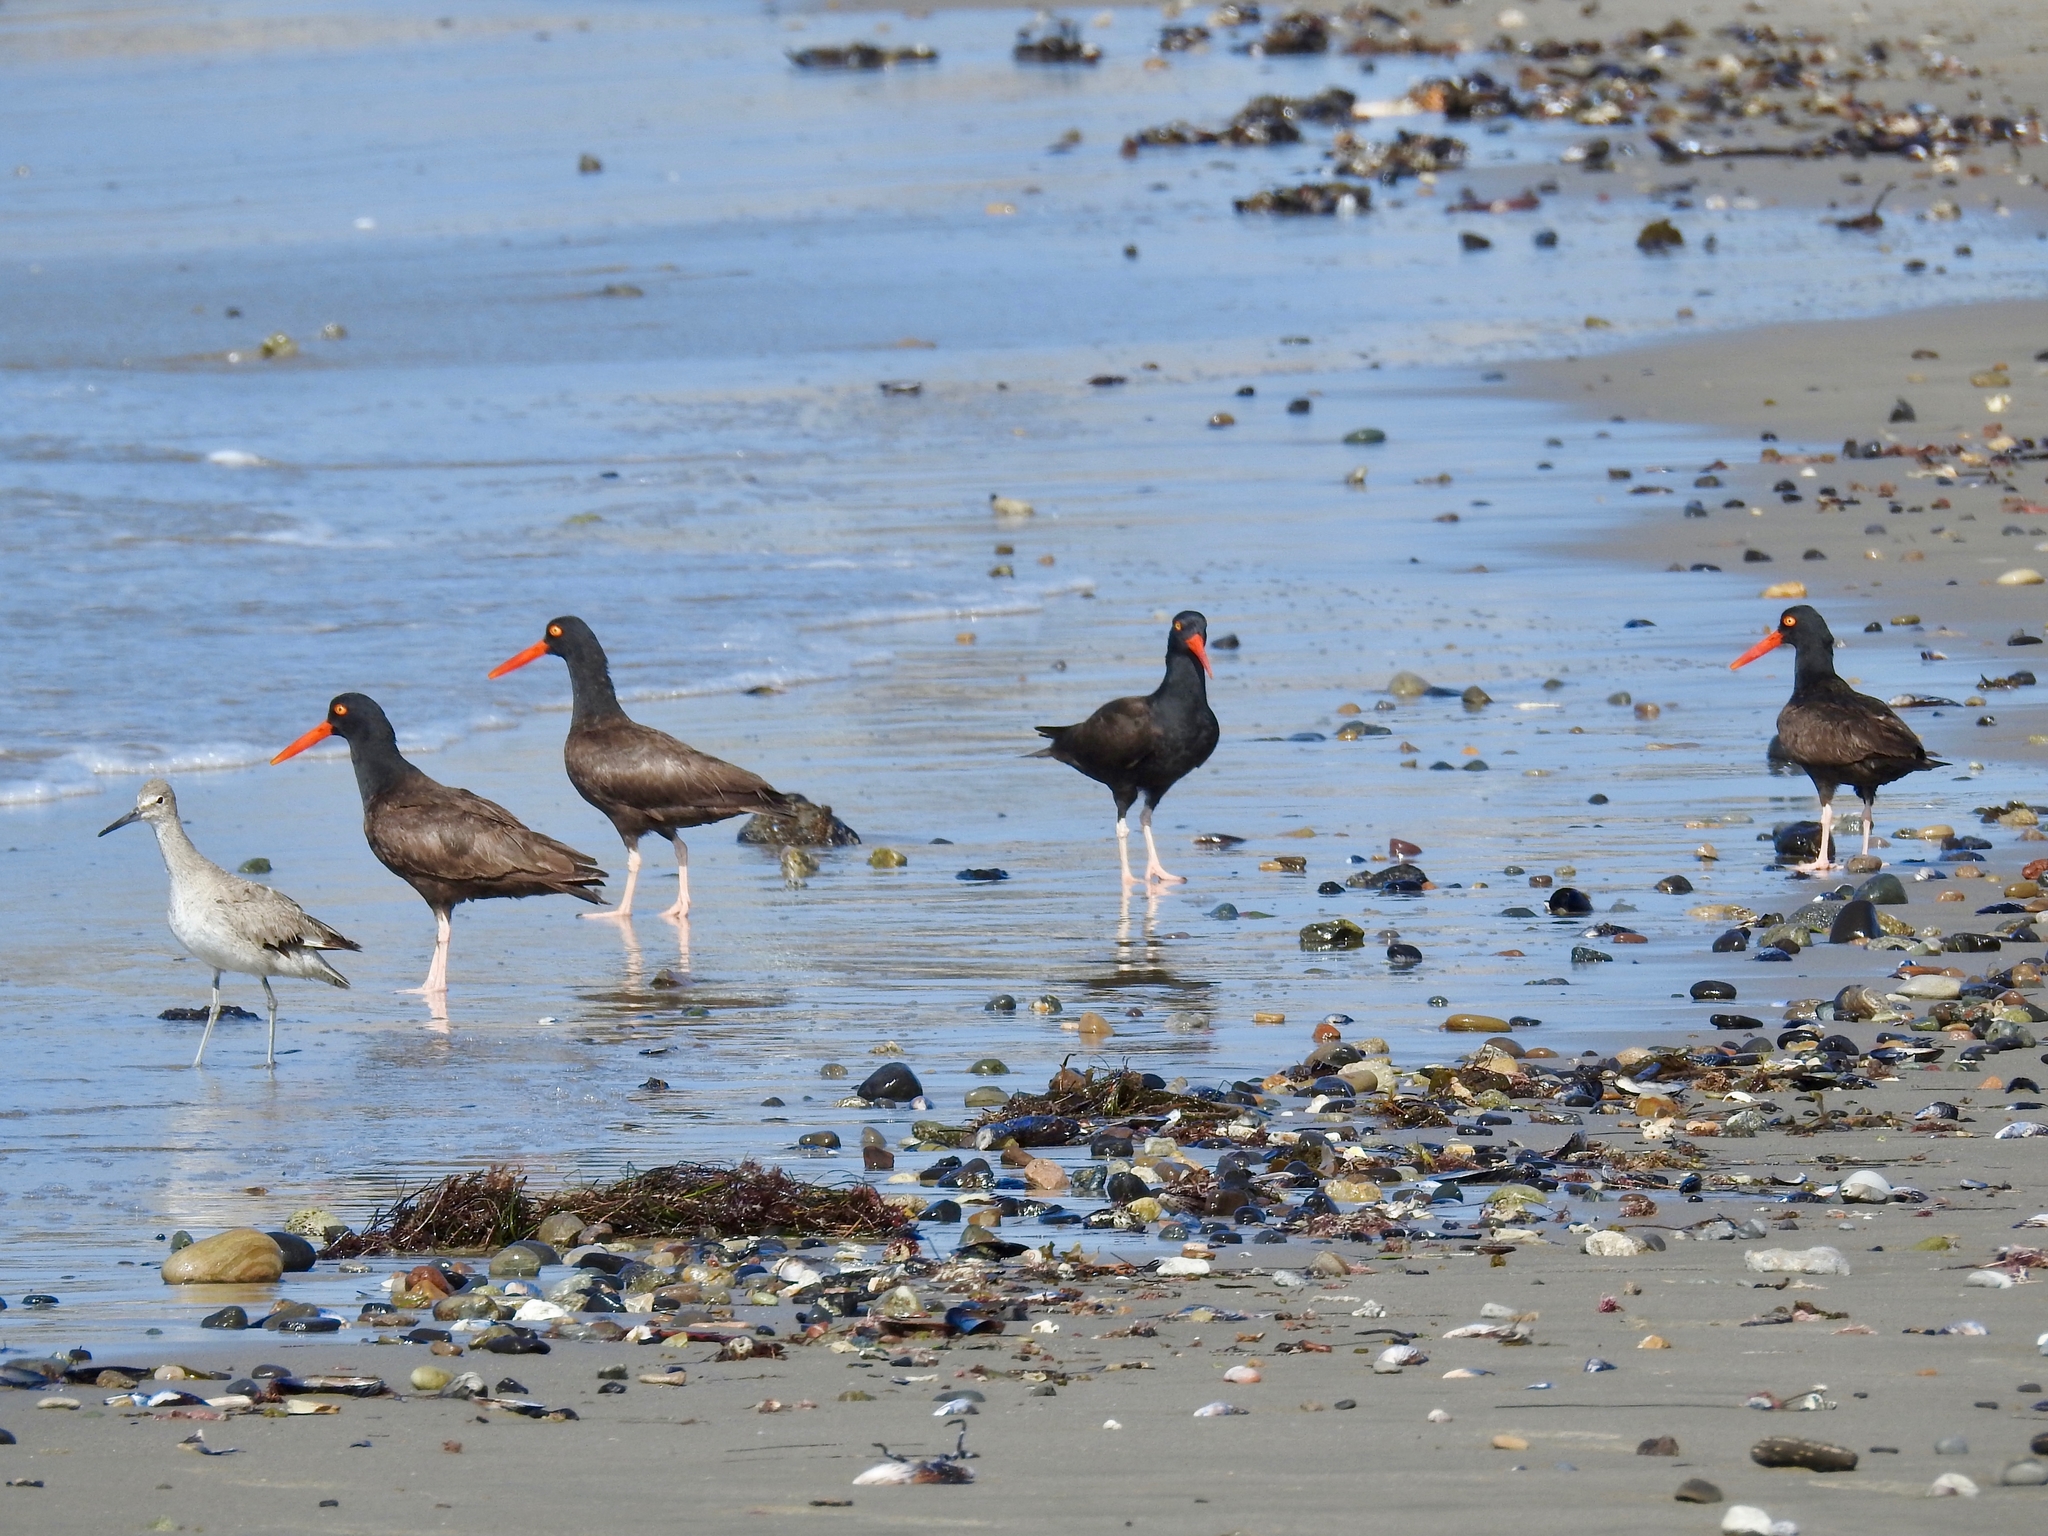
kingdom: Animalia
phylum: Chordata
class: Aves
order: Charadriiformes
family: Haematopodidae
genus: Haematopus
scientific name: Haematopus bachmani
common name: Black oystercatcher
